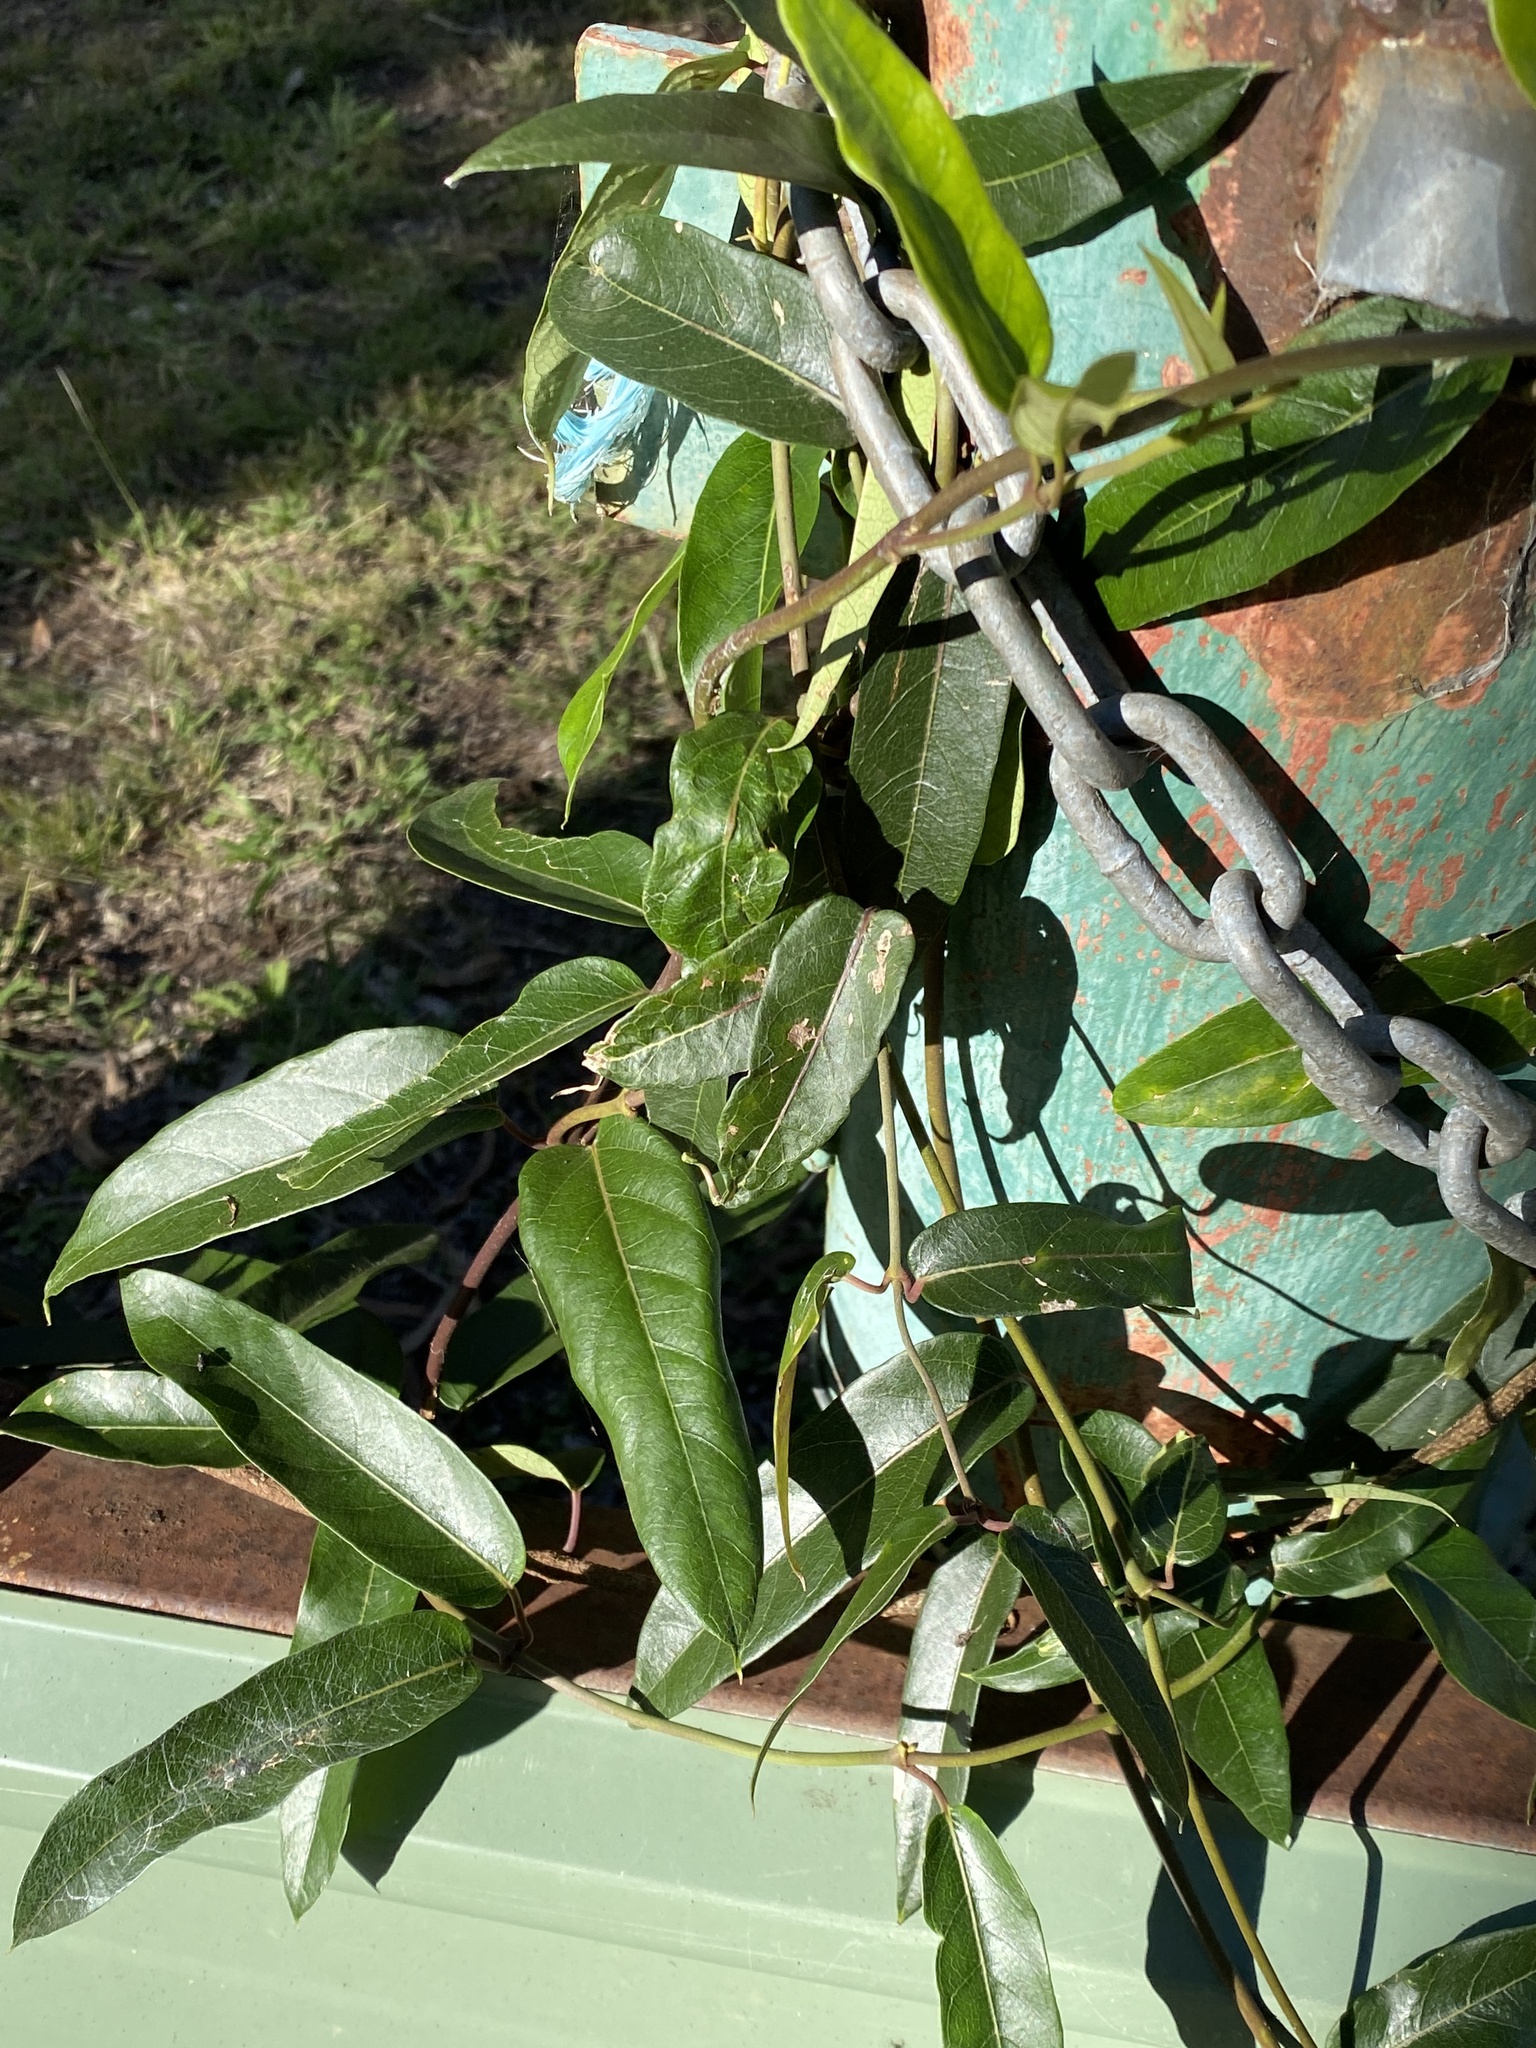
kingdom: Plantae
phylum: Tracheophyta
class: Magnoliopsida
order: Gentianales
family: Apocynaceae
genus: Parsonsia
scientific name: Parsonsia straminea
